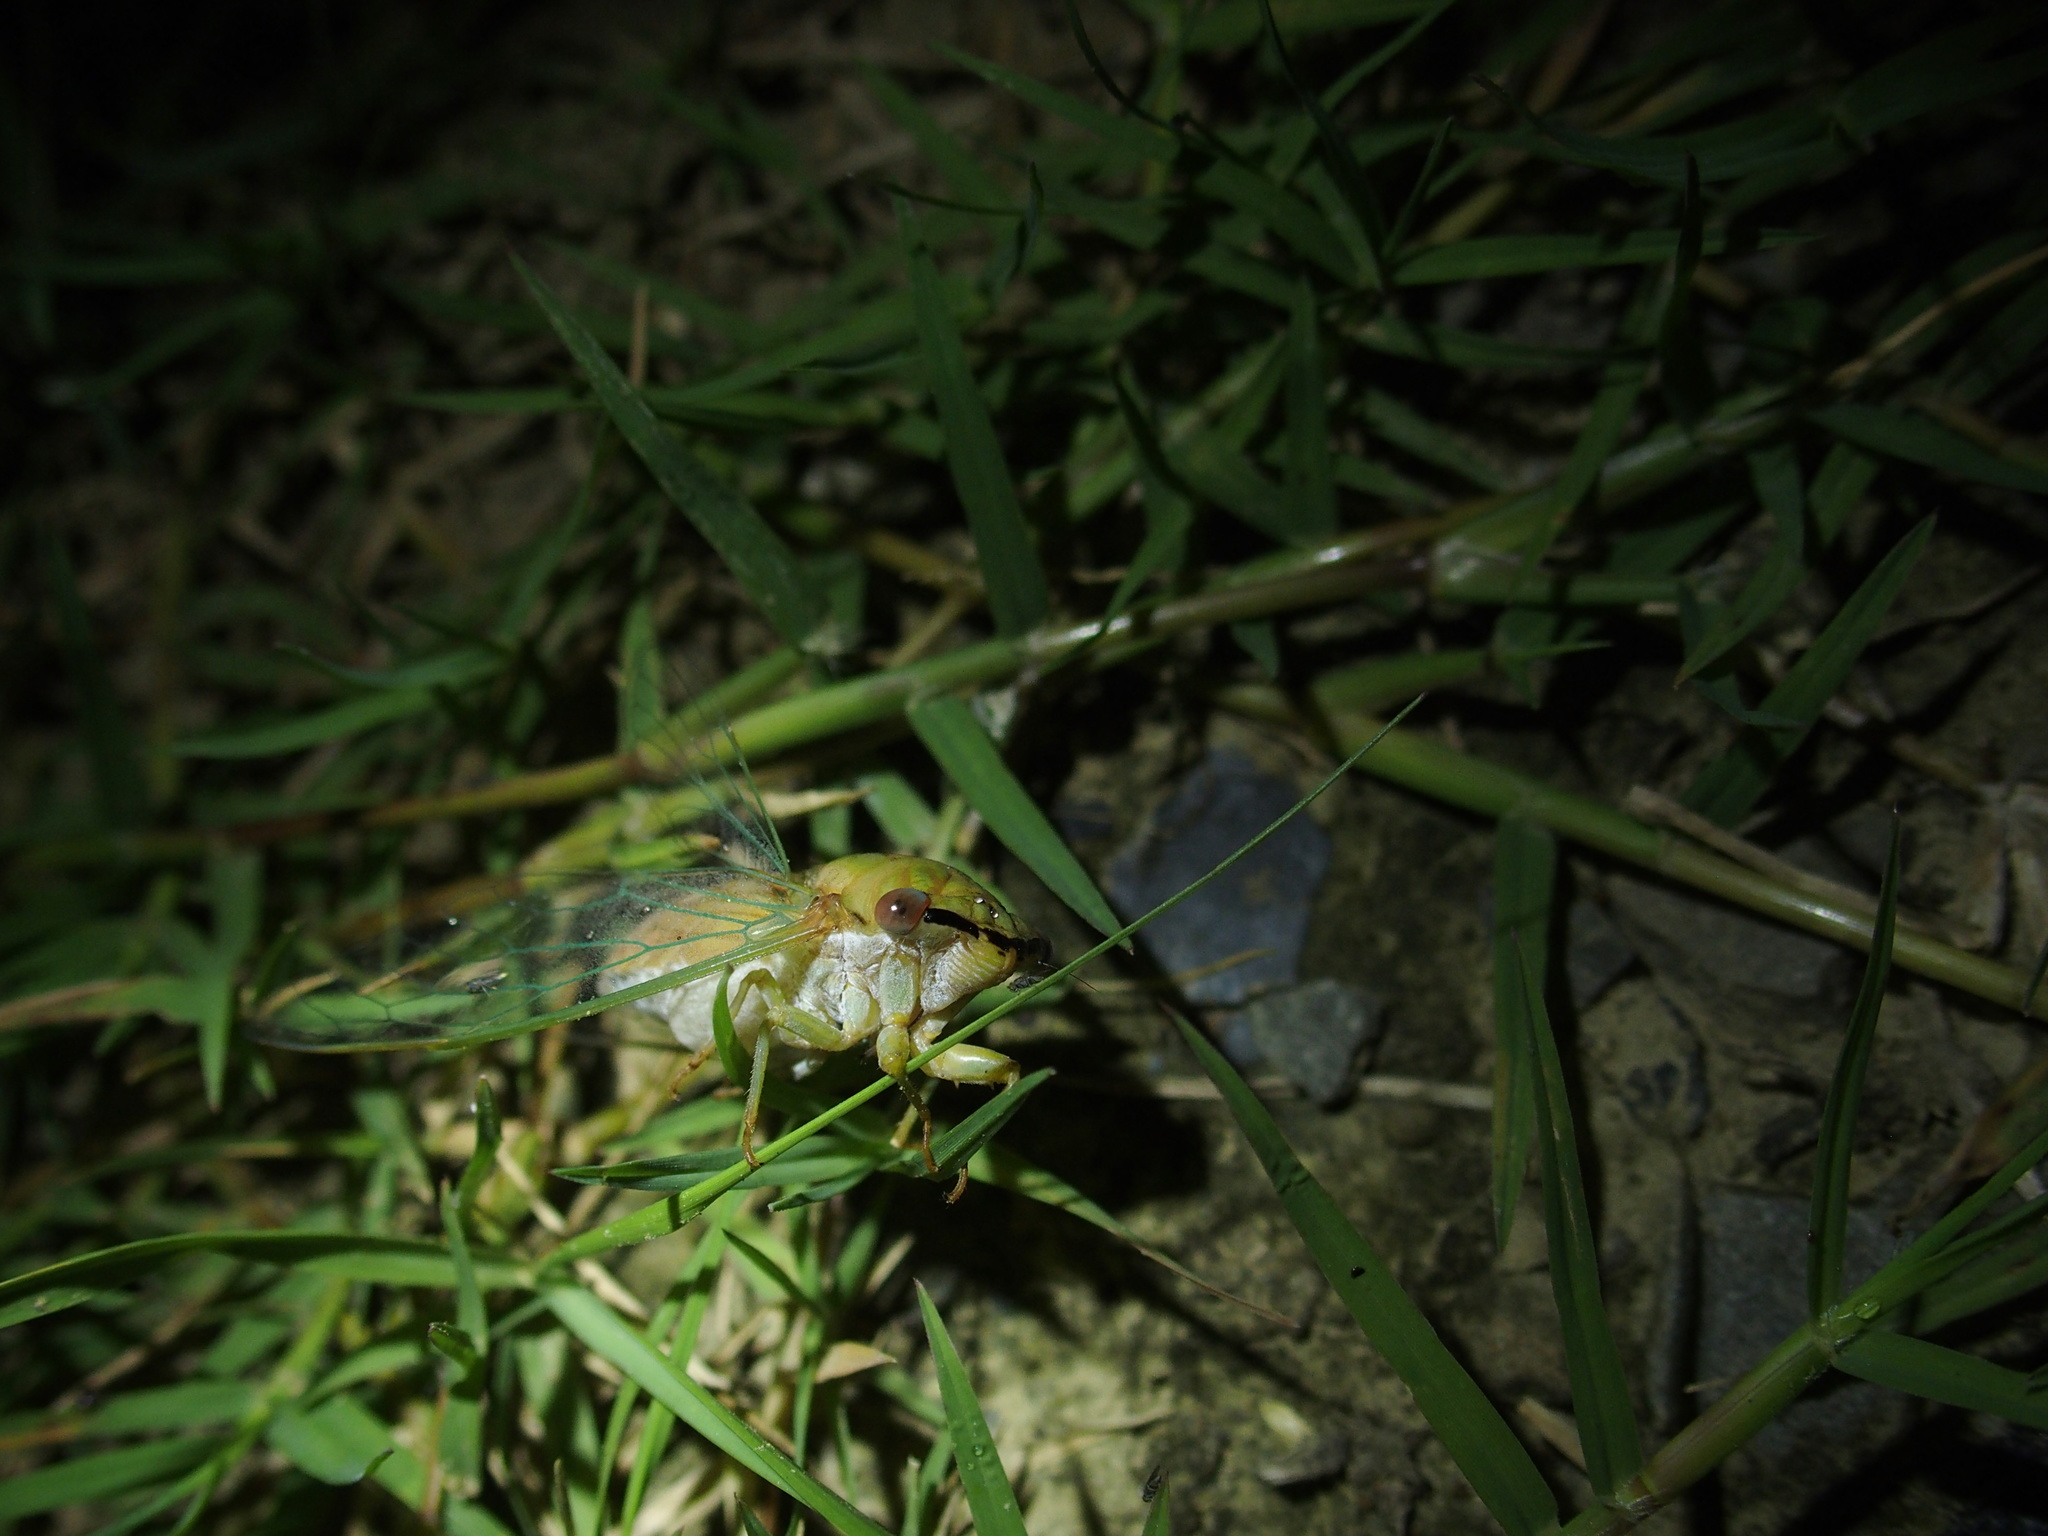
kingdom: Animalia
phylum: Arthropoda
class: Insecta
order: Hemiptera
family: Cicadidae
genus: Chremistica
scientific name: Chremistica ochracea
